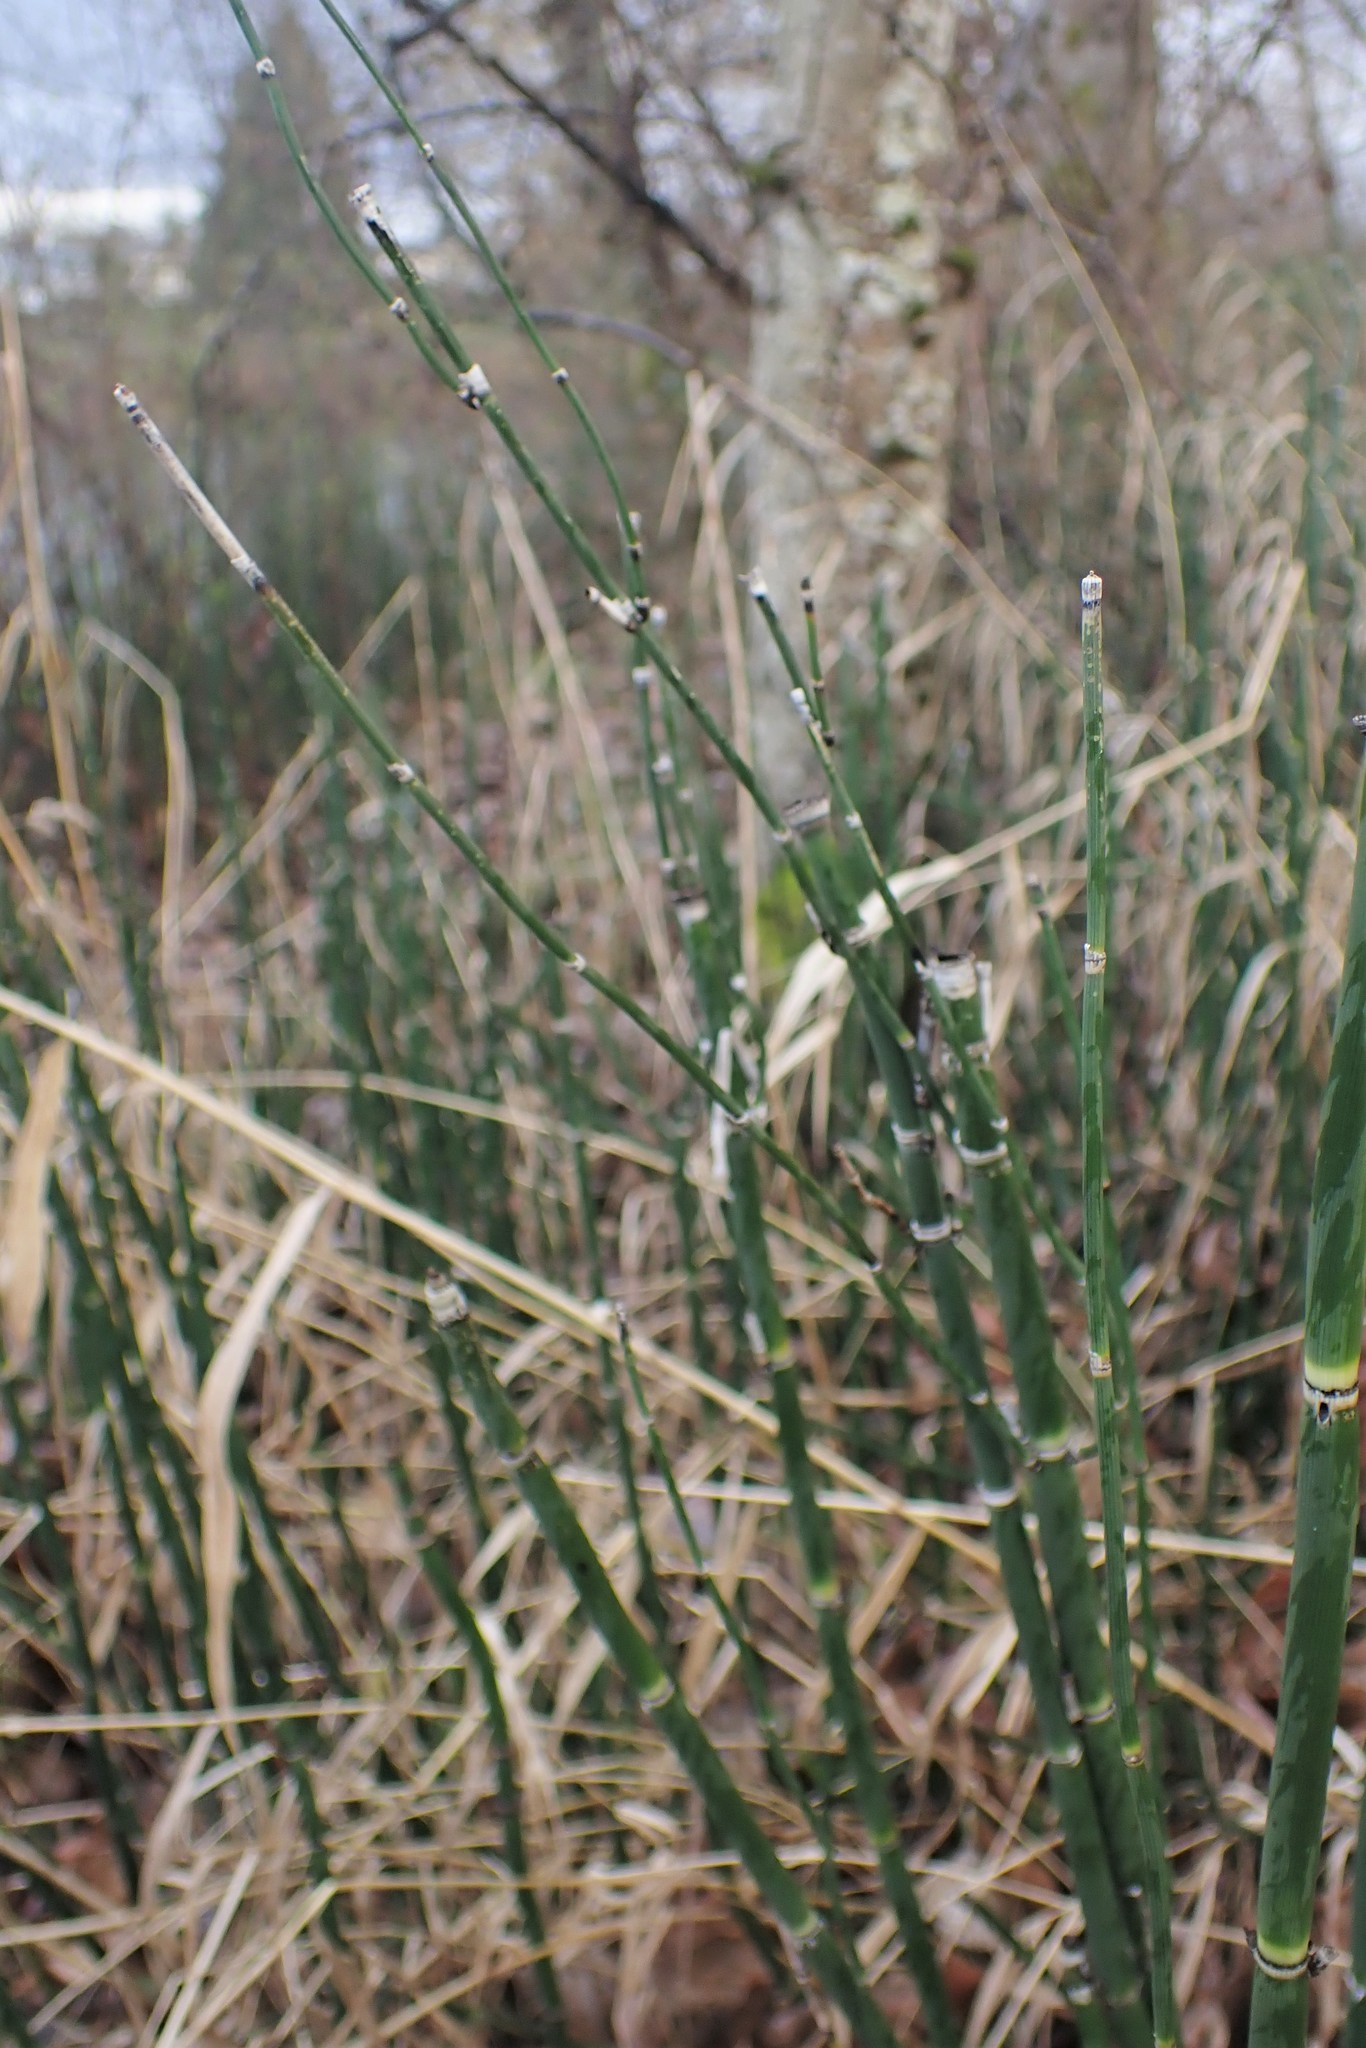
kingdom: Plantae
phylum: Tracheophyta
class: Polypodiopsida
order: Equisetales
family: Equisetaceae
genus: Equisetum
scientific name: Equisetum praealtum
